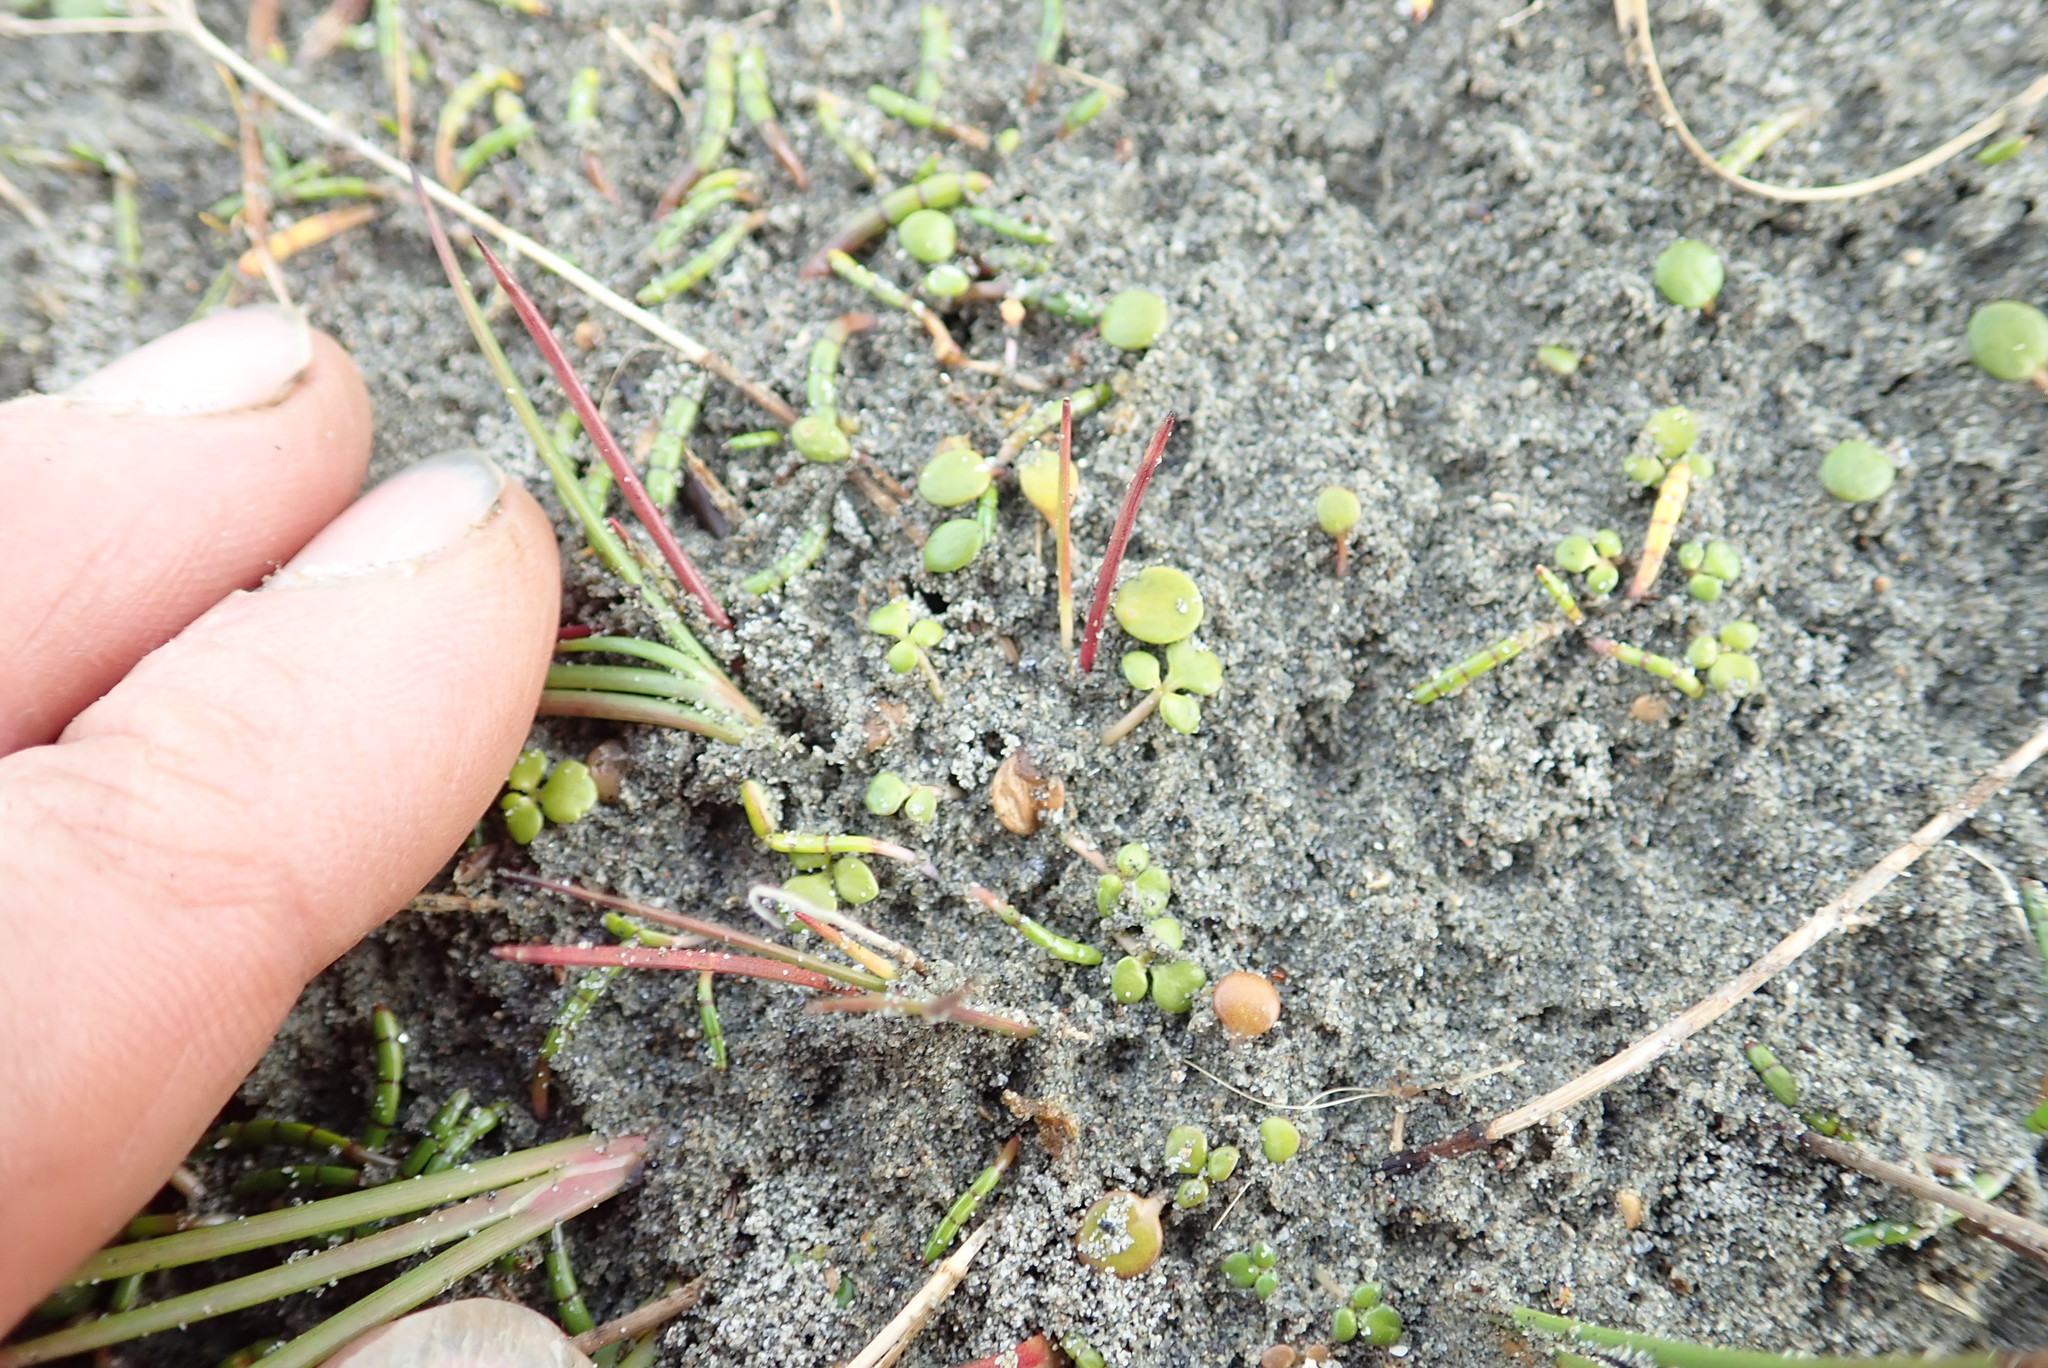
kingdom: Plantae
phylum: Tracheophyta
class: Magnoliopsida
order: Apiales
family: Apiaceae
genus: Lilaeopsis
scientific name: Lilaeopsis novae-zelandiae
